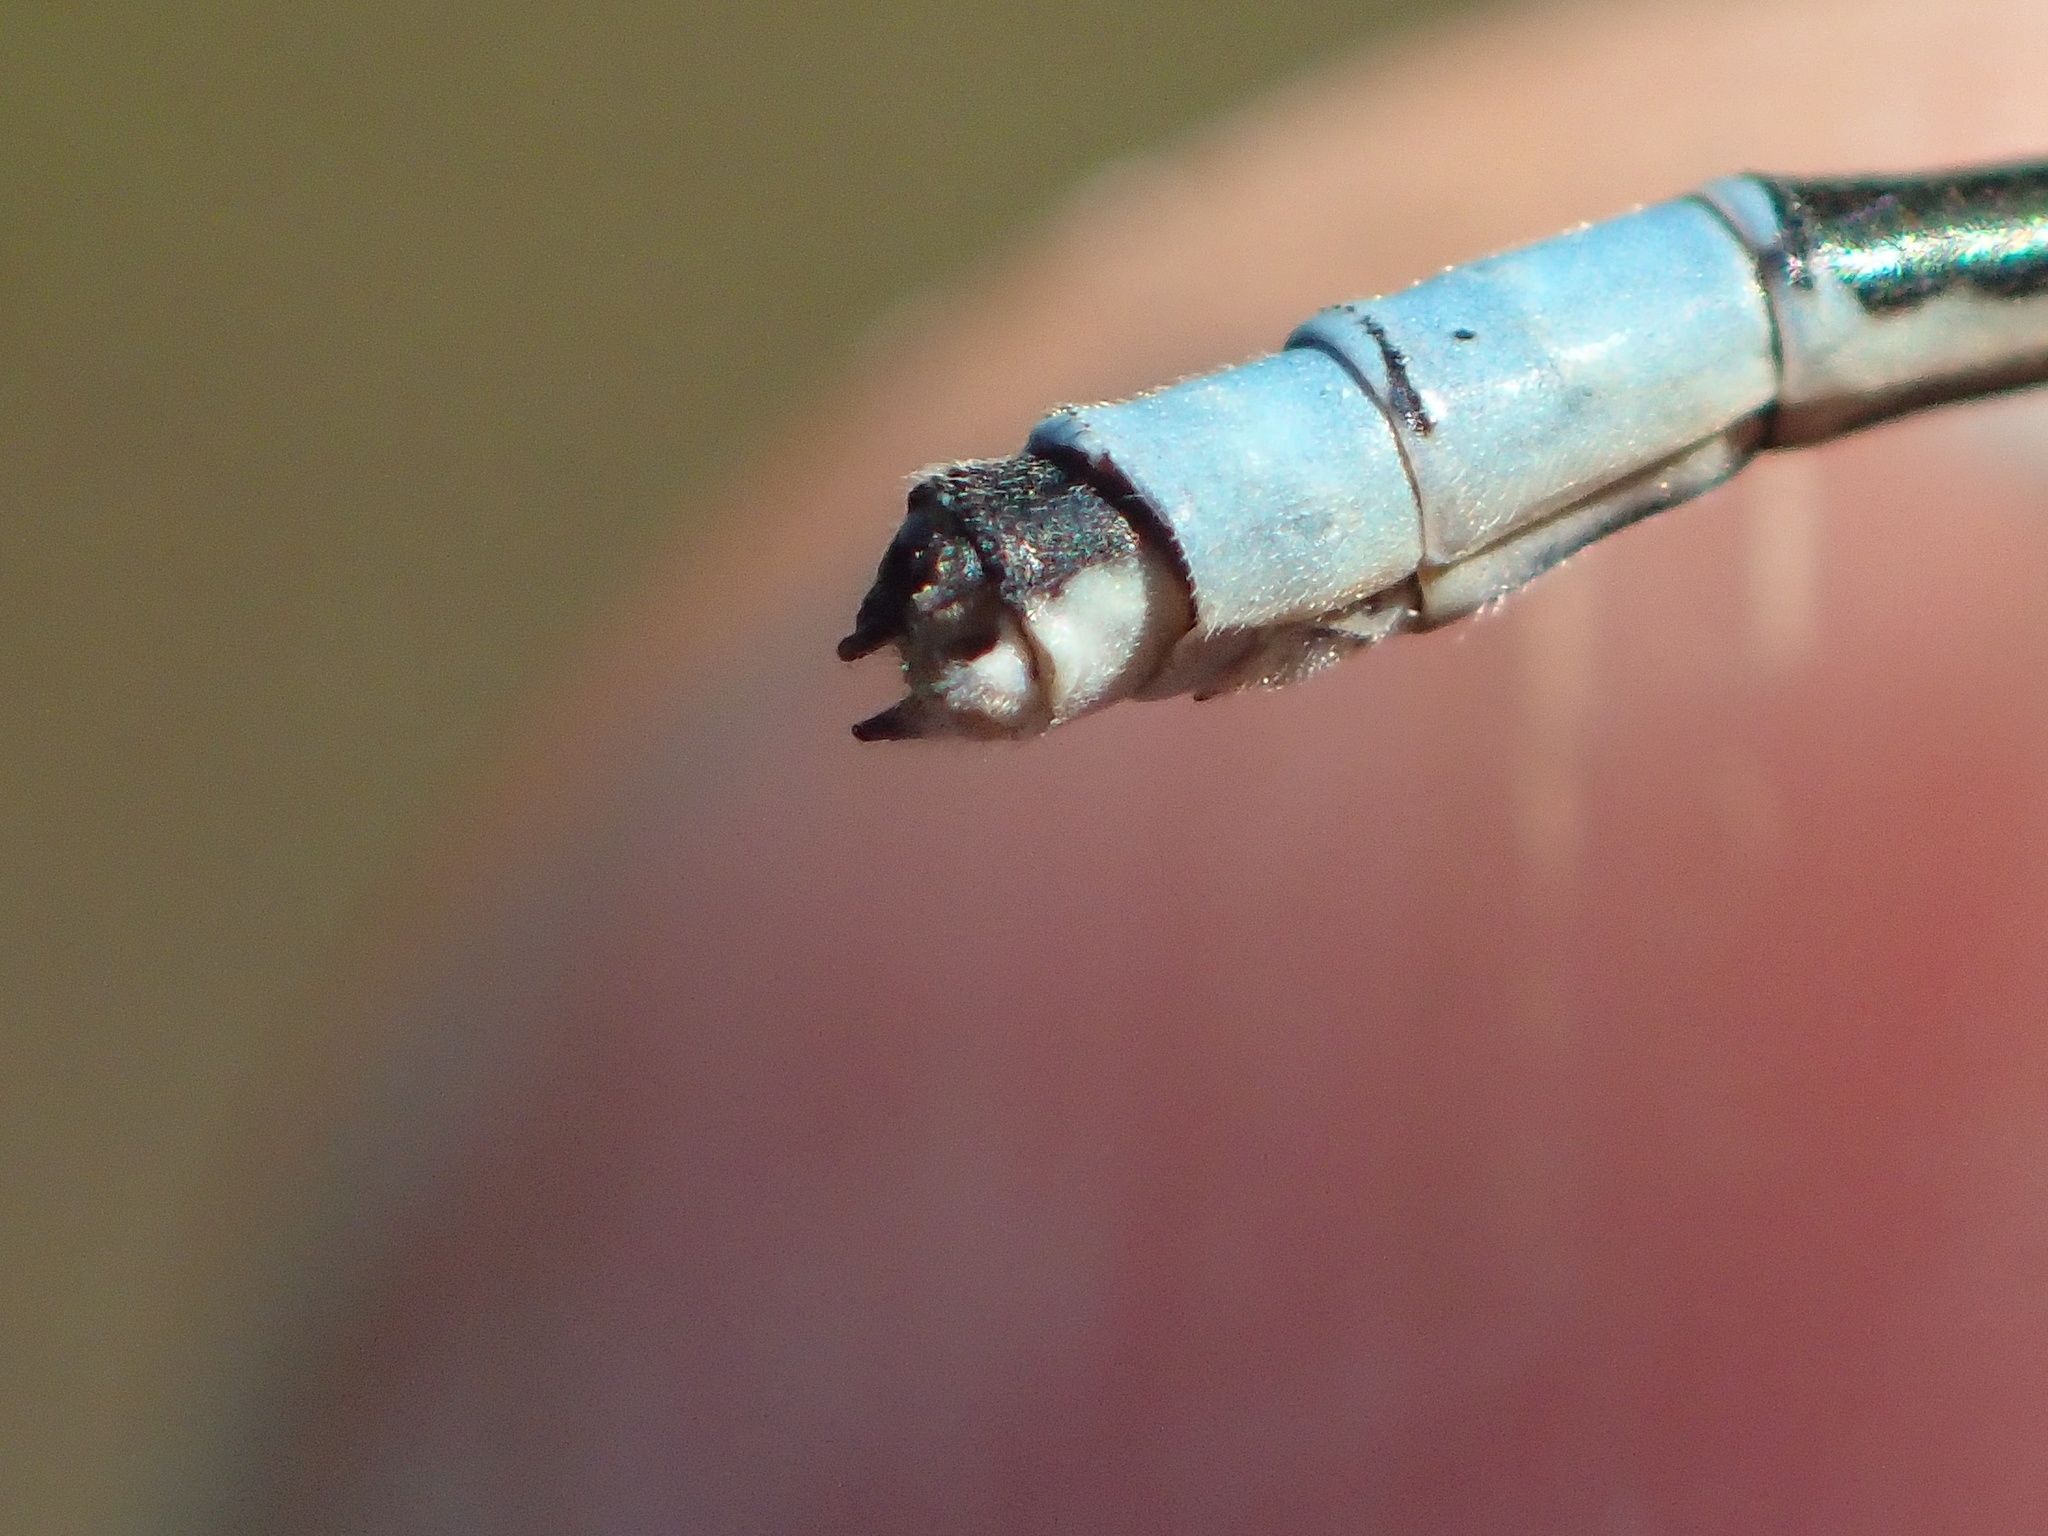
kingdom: Animalia
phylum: Arthropoda
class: Insecta
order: Odonata
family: Coenagrionidae
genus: Enallagma
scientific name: Enallagma hageni
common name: Hagen's bluet
